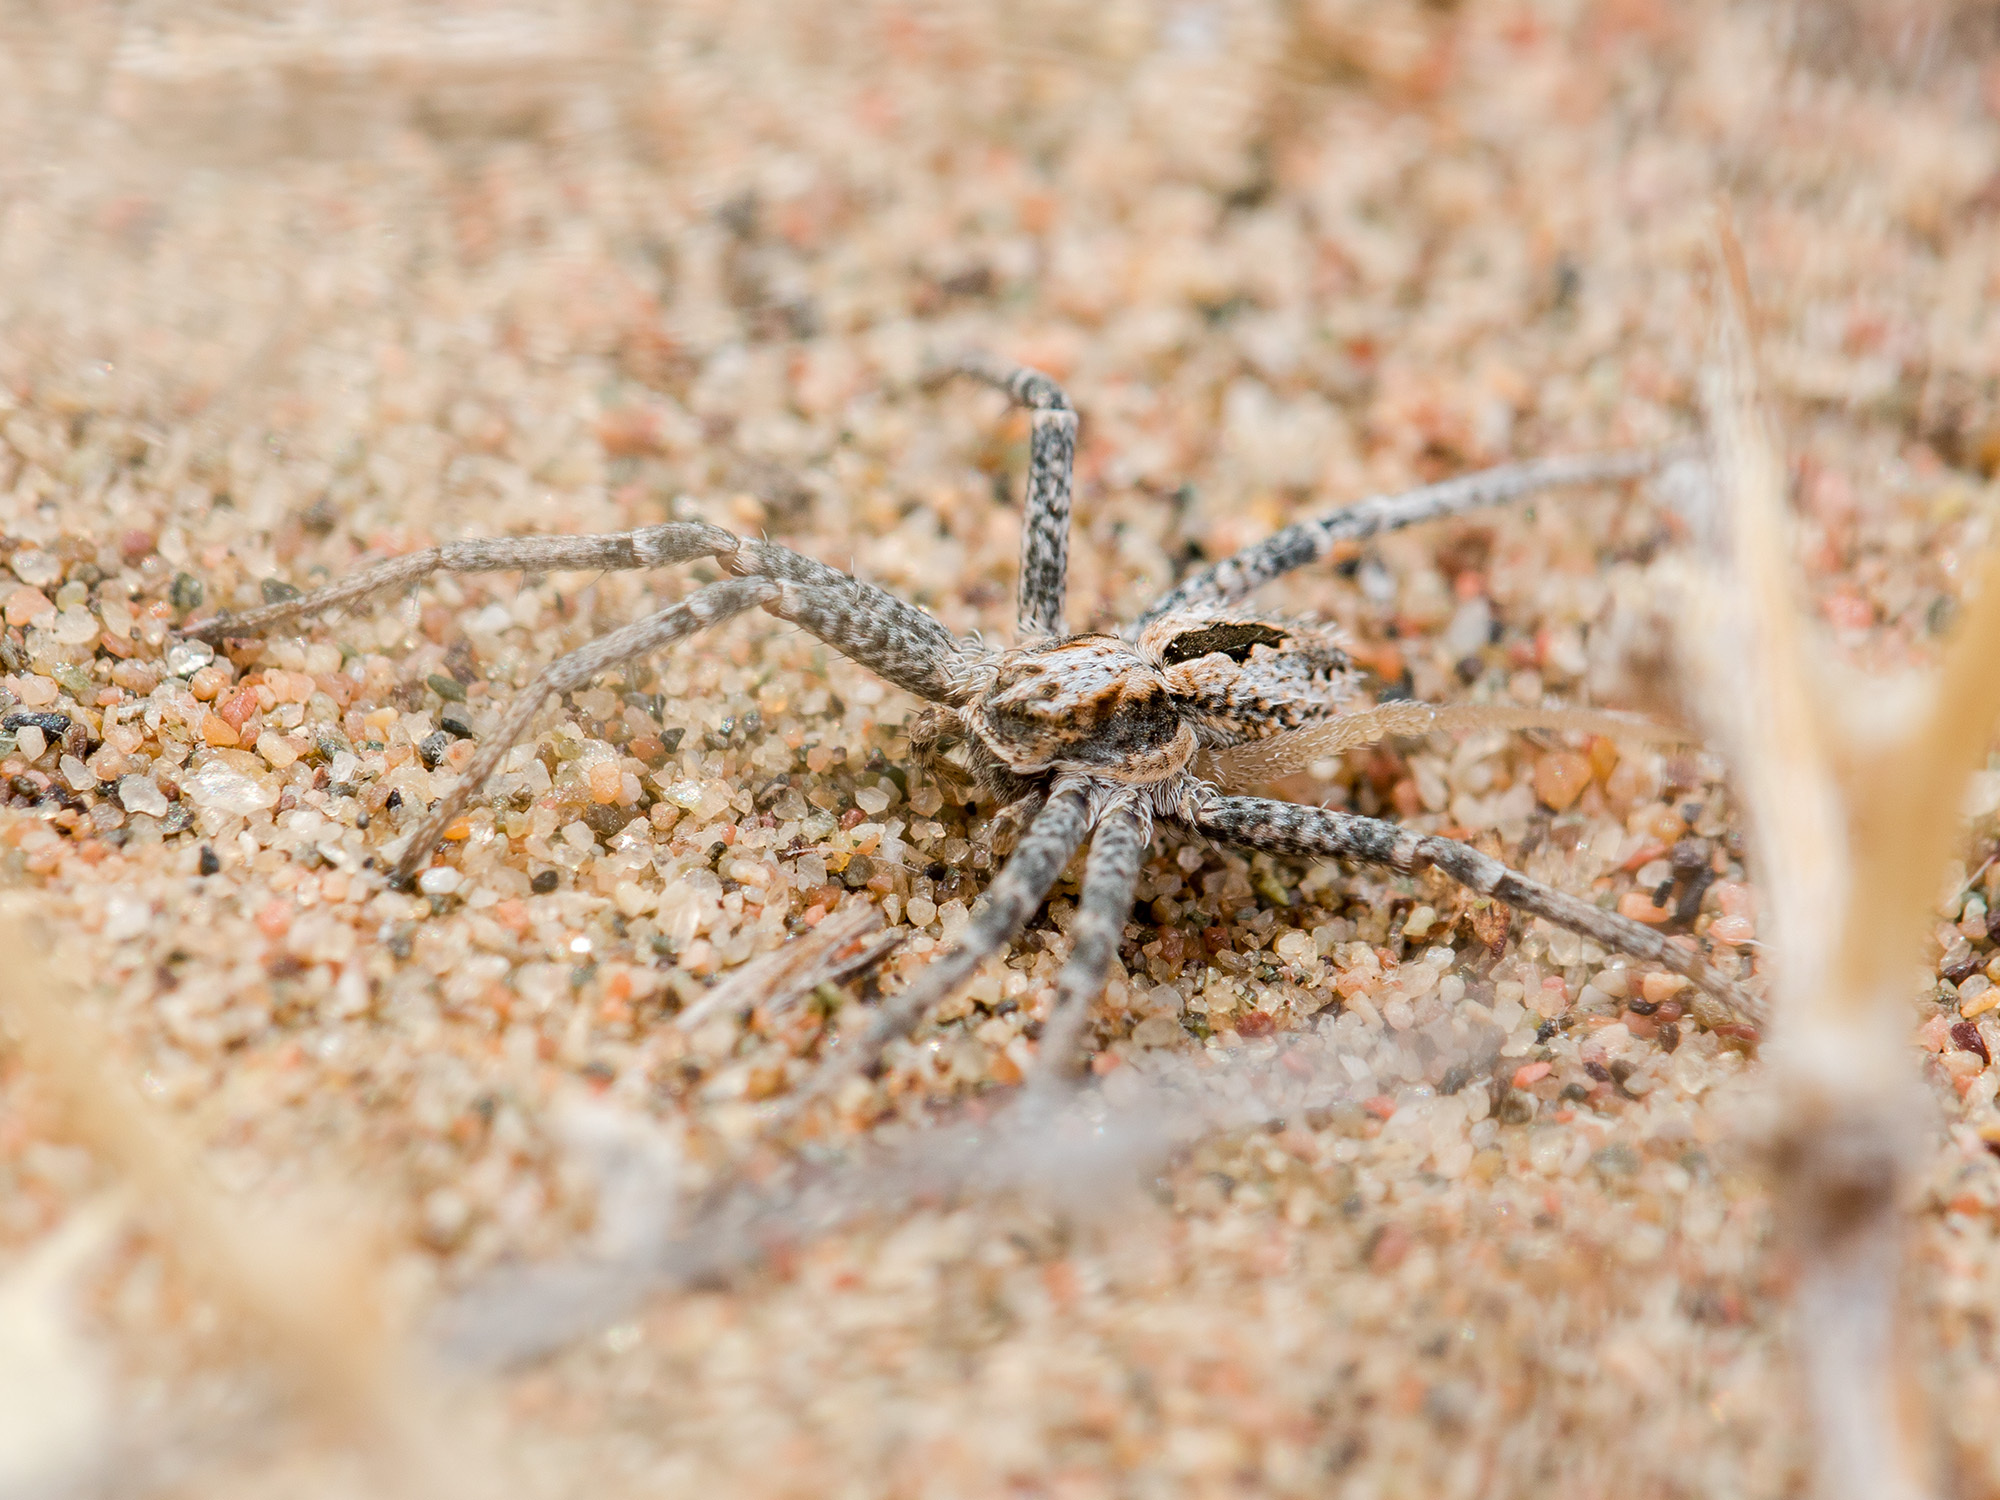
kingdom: Animalia
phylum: Arthropoda
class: Arachnida
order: Araneae
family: Philodromidae
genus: Thanatus
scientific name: Thanatus kitabensis
